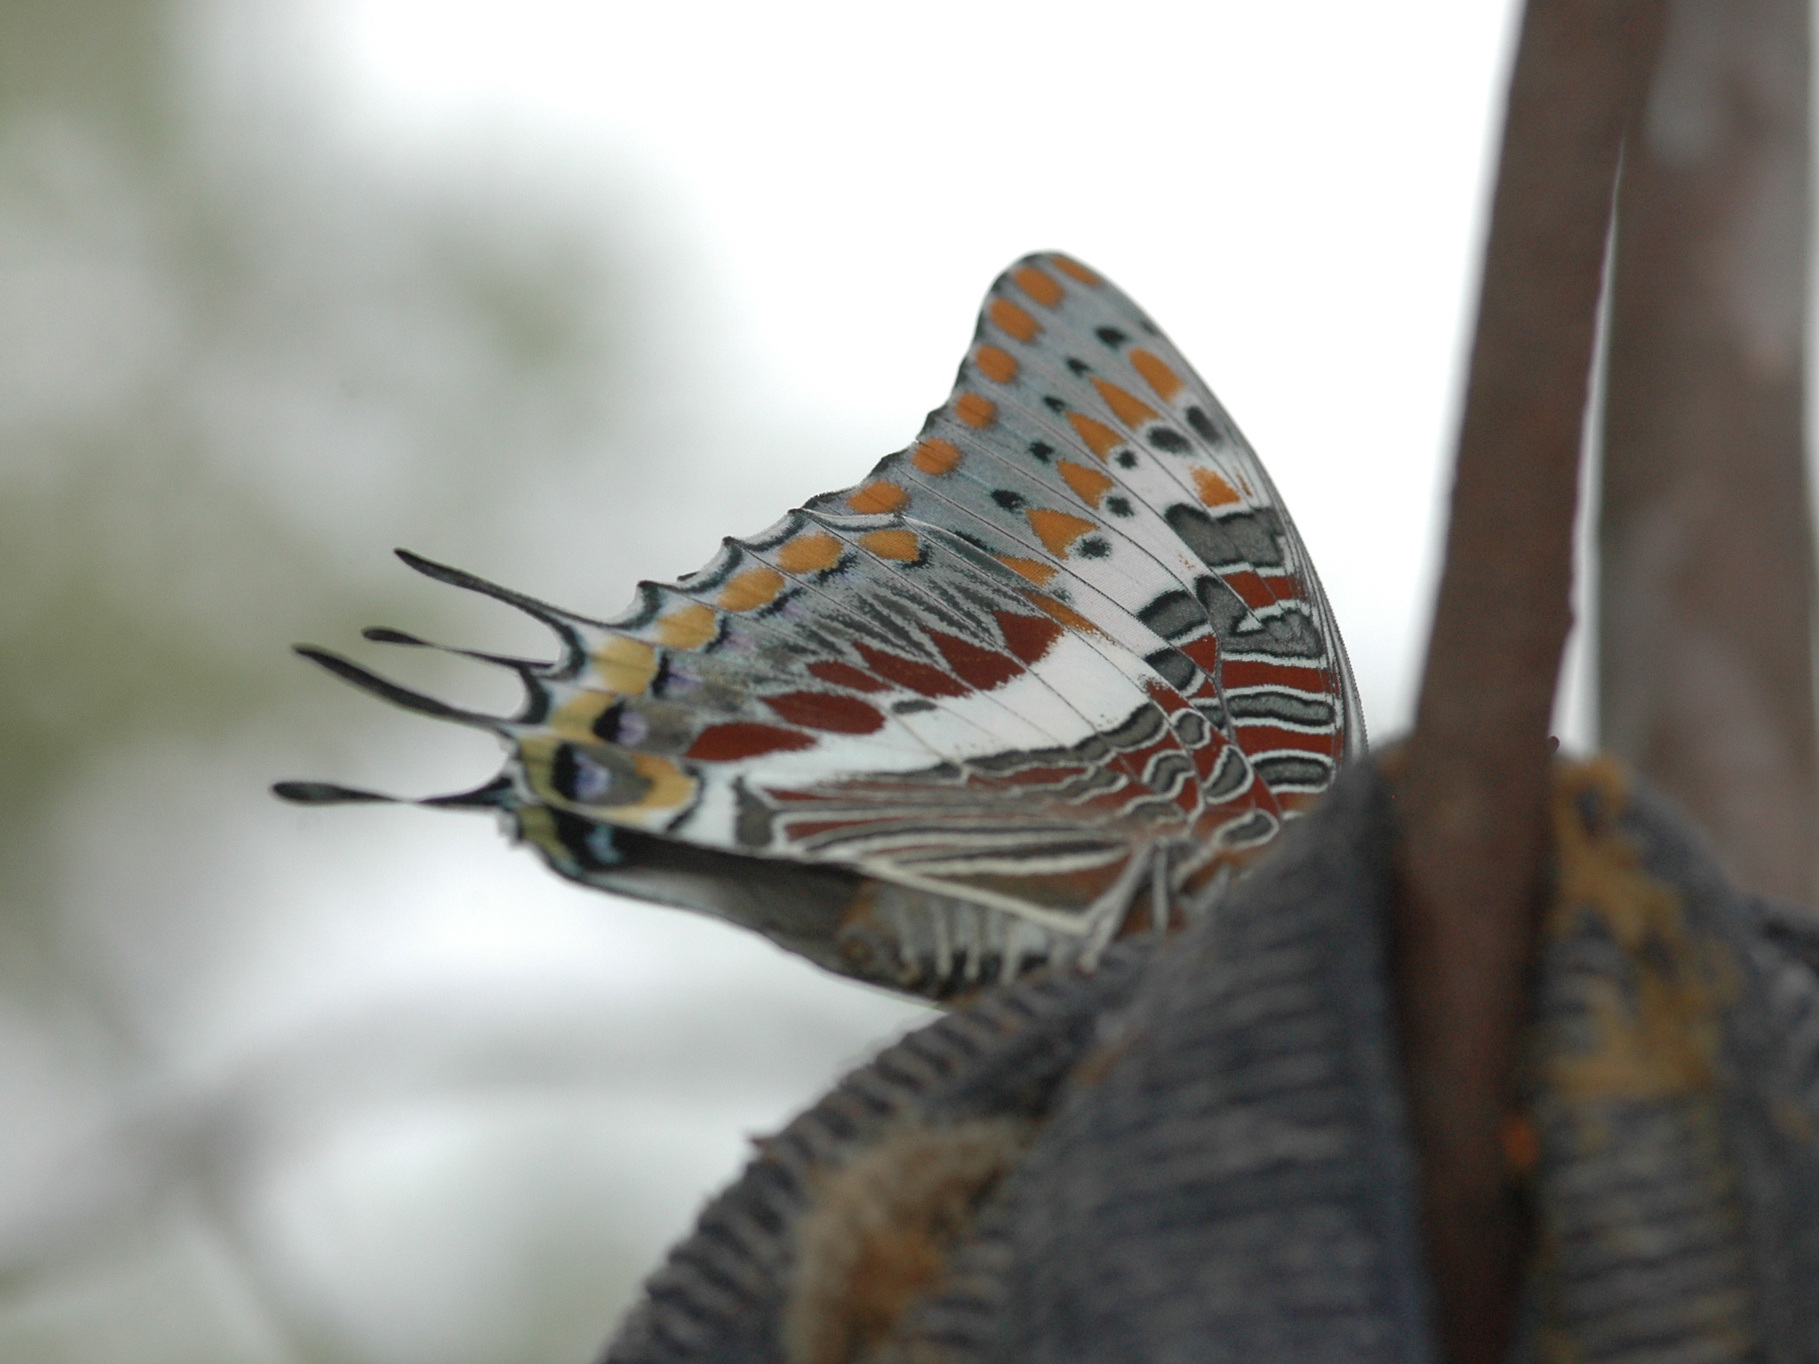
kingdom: Animalia
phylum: Arthropoda
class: Insecta
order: Lepidoptera
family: Nymphalidae
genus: Charaxes
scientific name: Charaxes jasius
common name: Two tailed pasha
